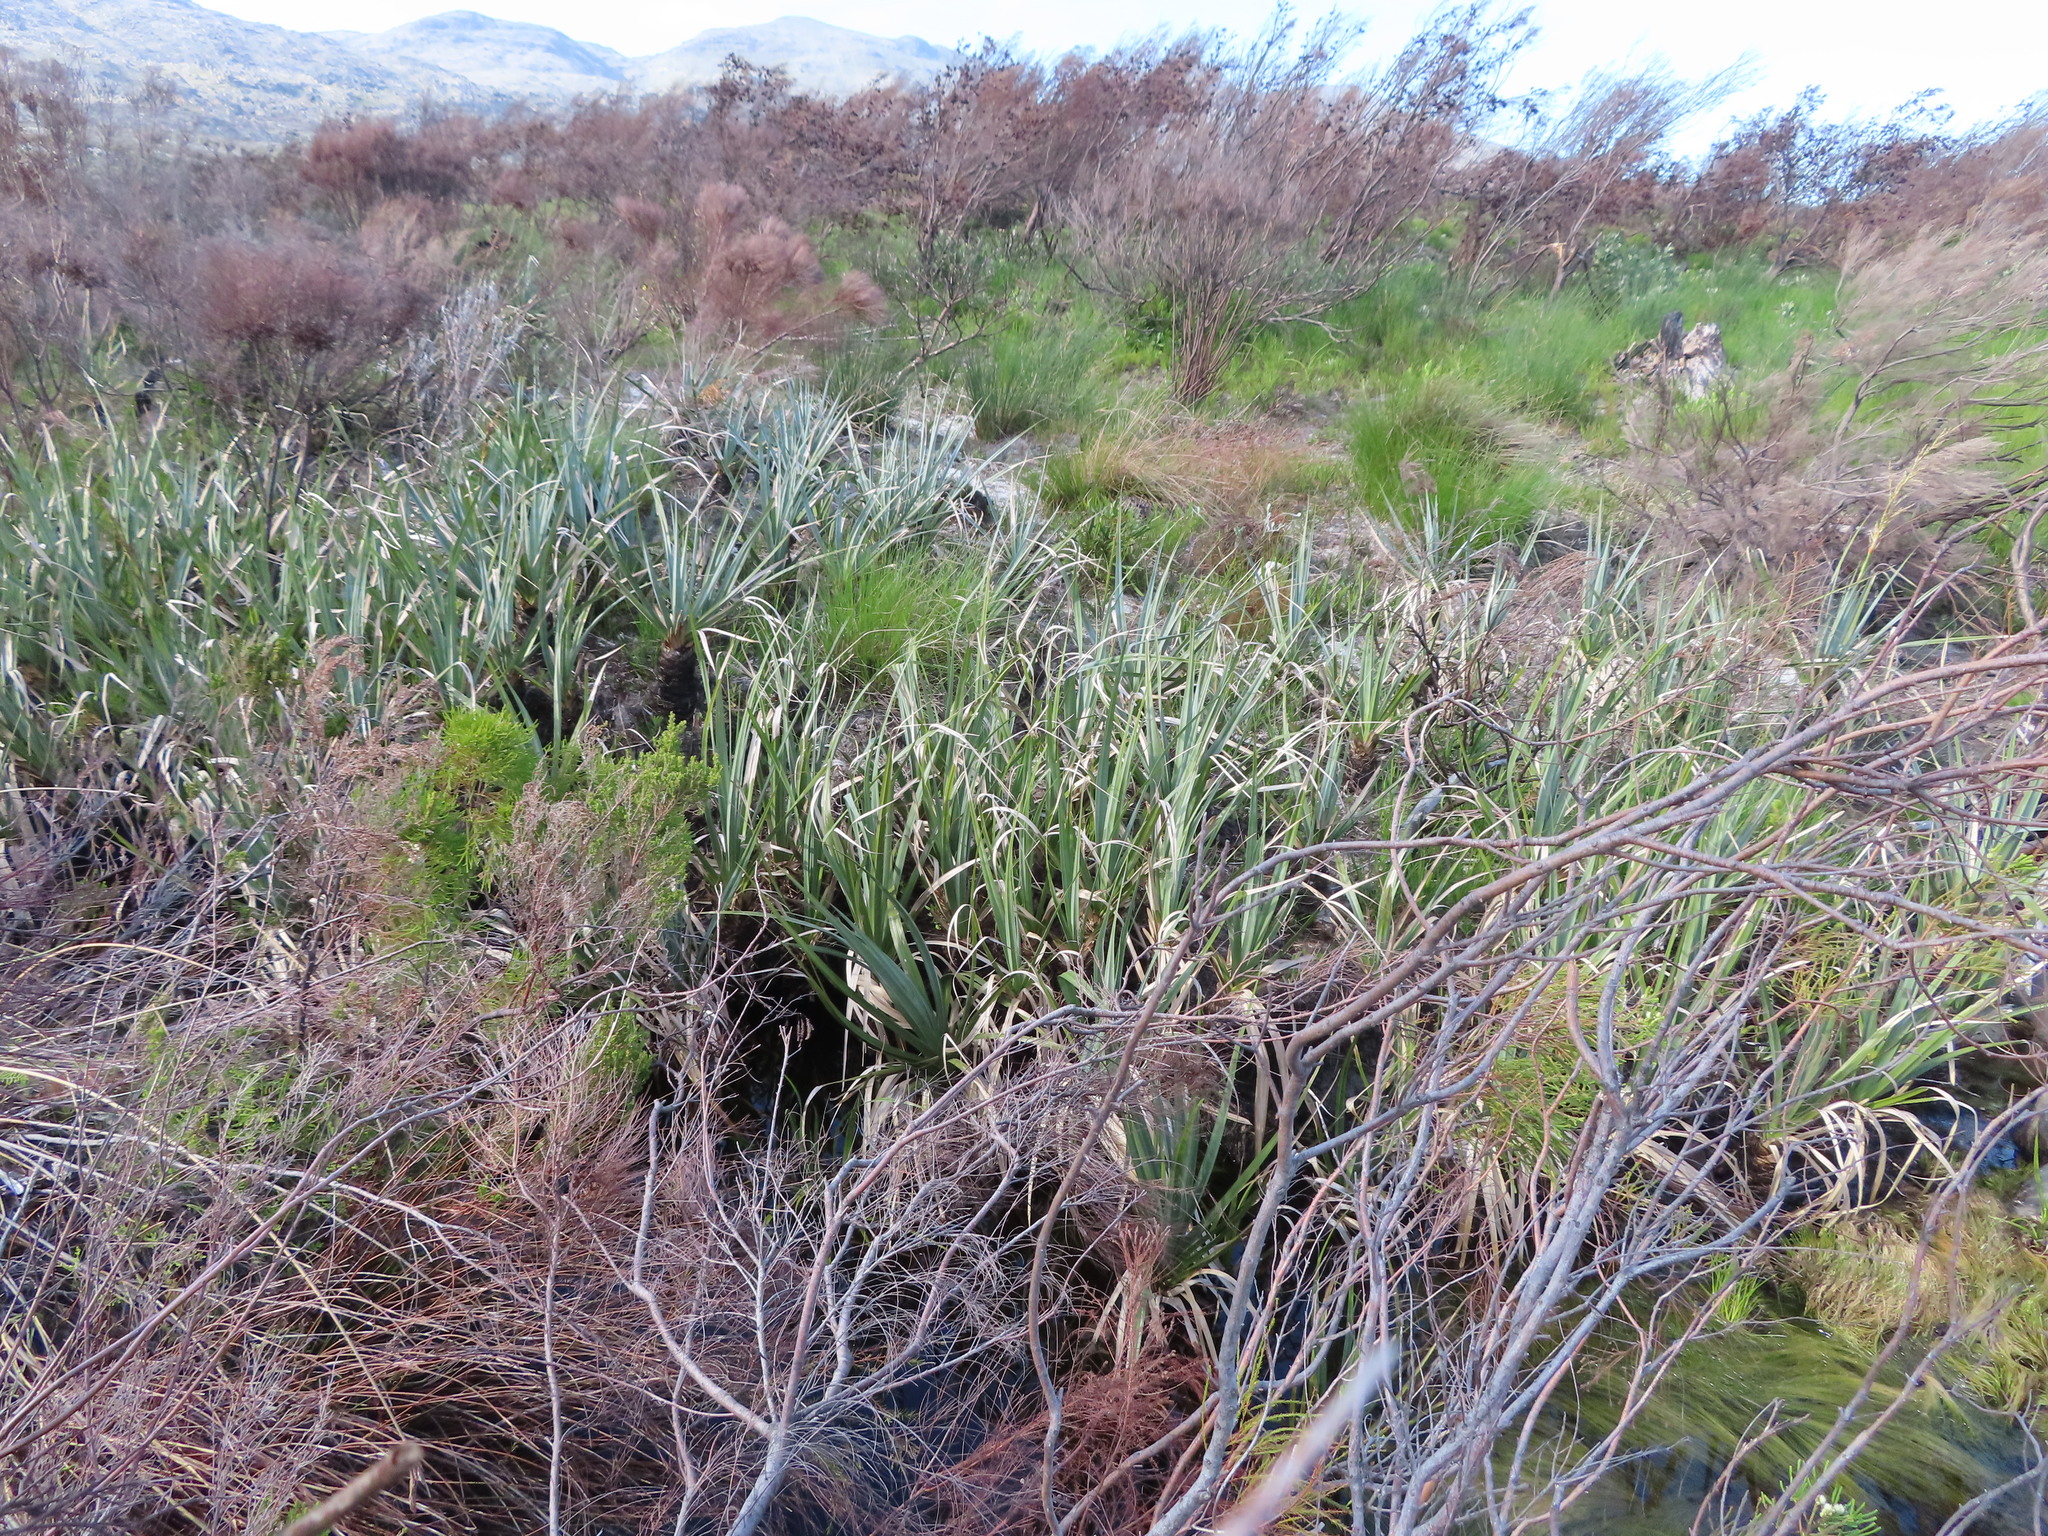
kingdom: Plantae
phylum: Tracheophyta
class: Liliopsida
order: Poales
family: Thurniaceae
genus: Prionium
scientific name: Prionium serratum
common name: Palmiet
